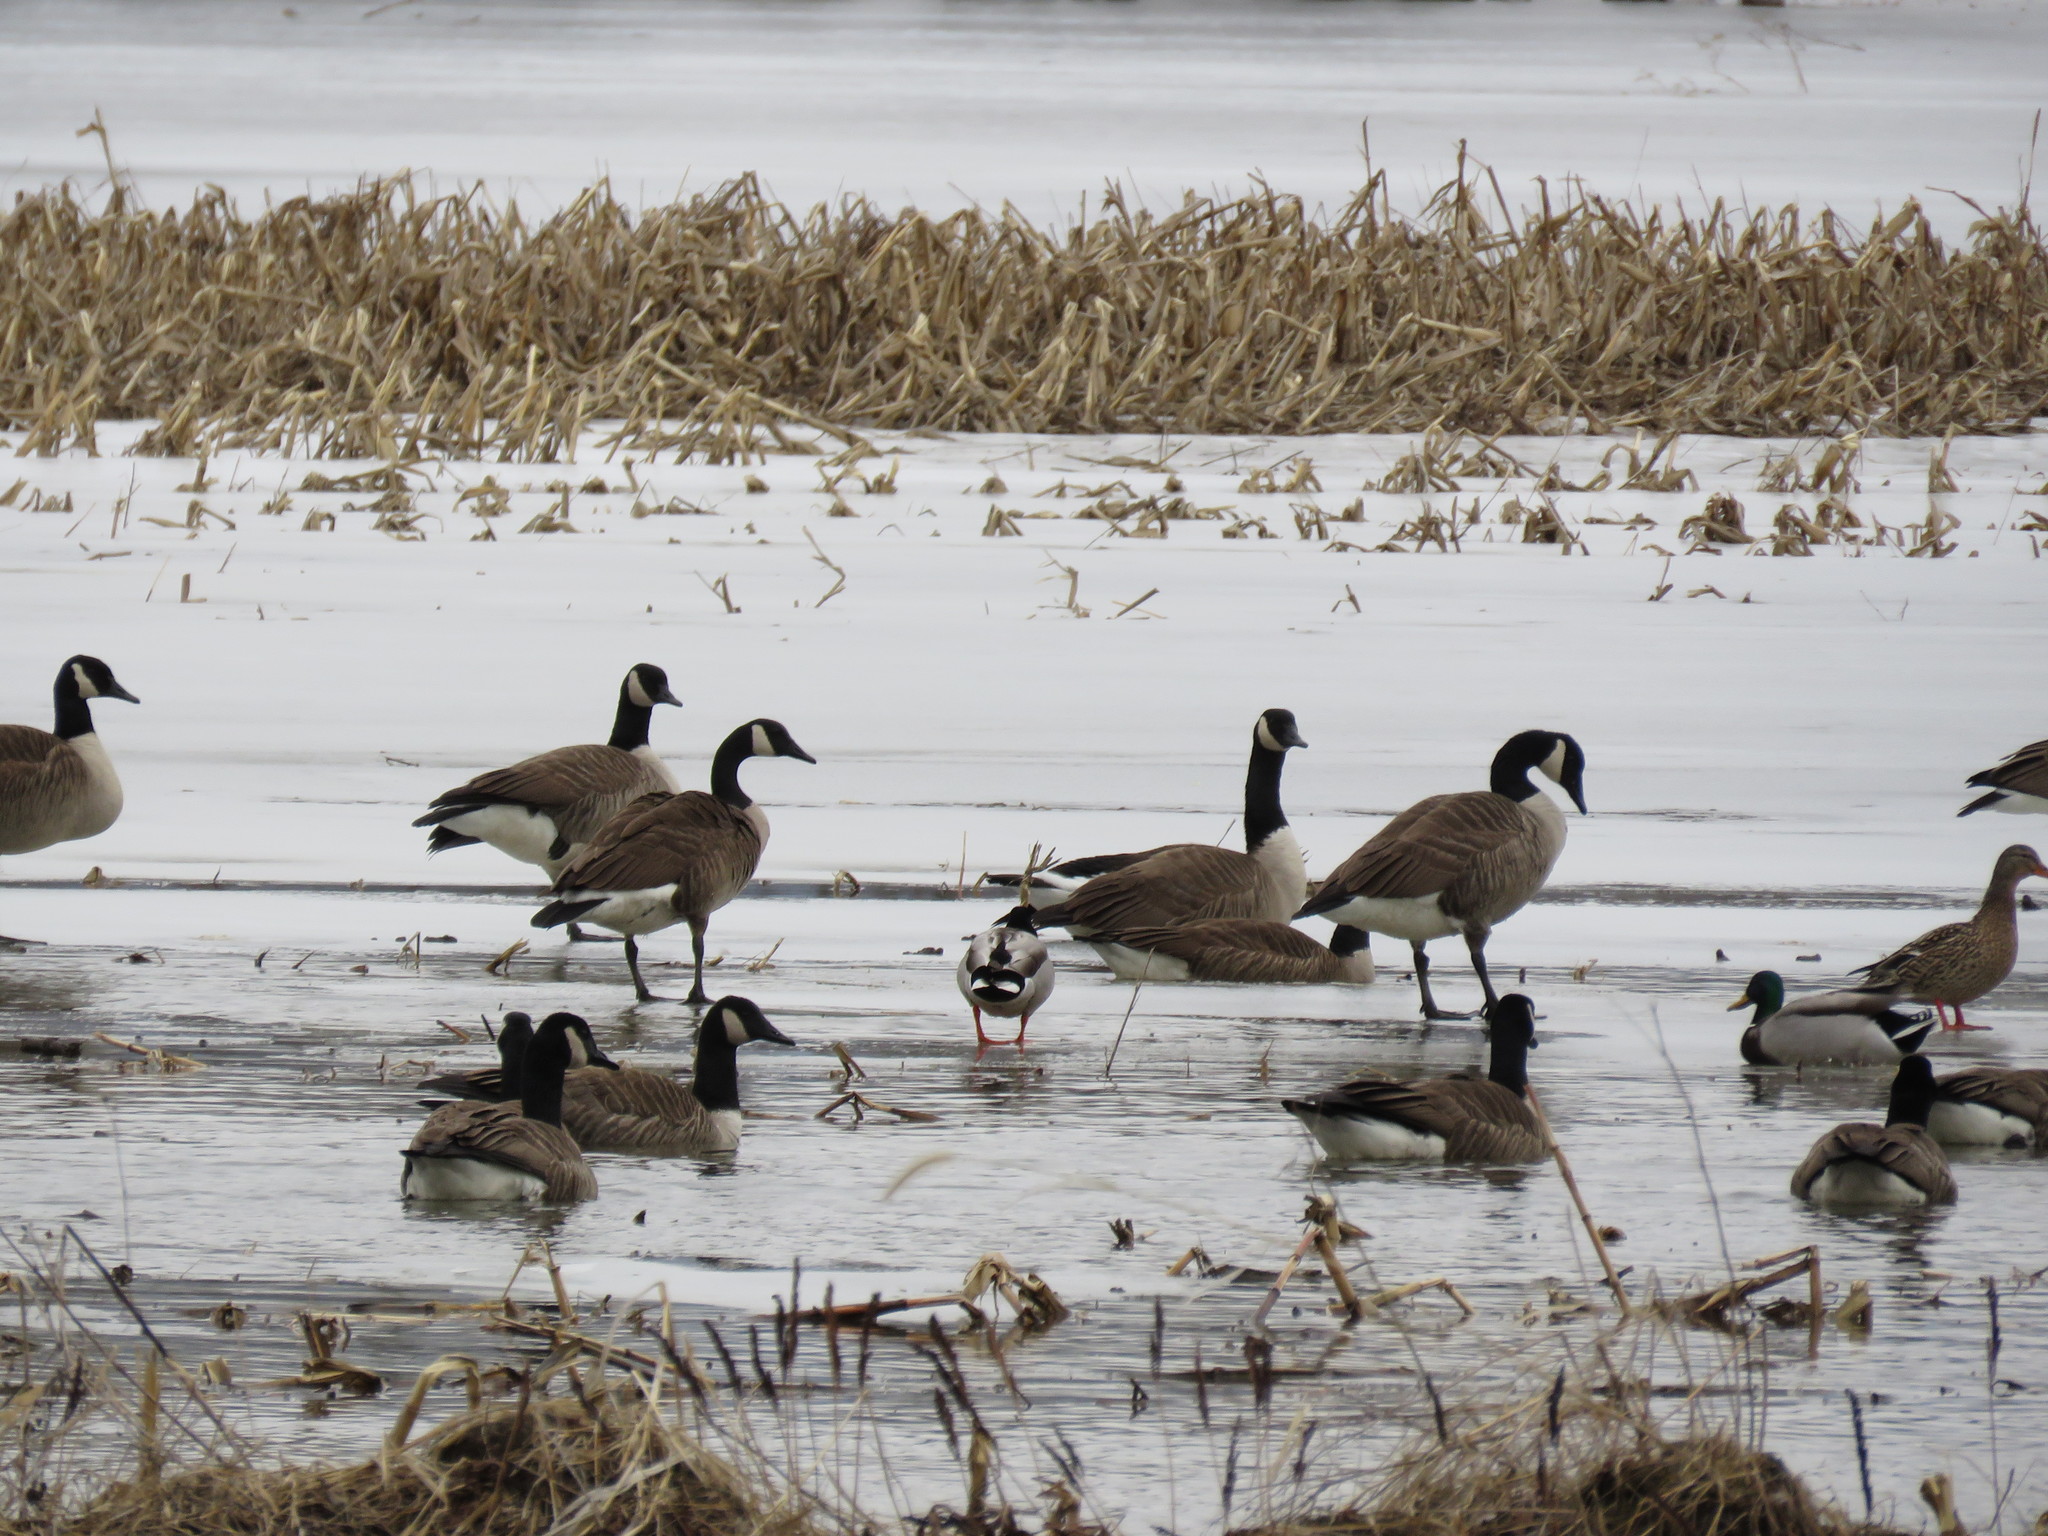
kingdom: Animalia
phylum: Chordata
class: Aves
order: Anseriformes
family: Anatidae
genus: Branta
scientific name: Branta canadensis
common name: Canada goose
